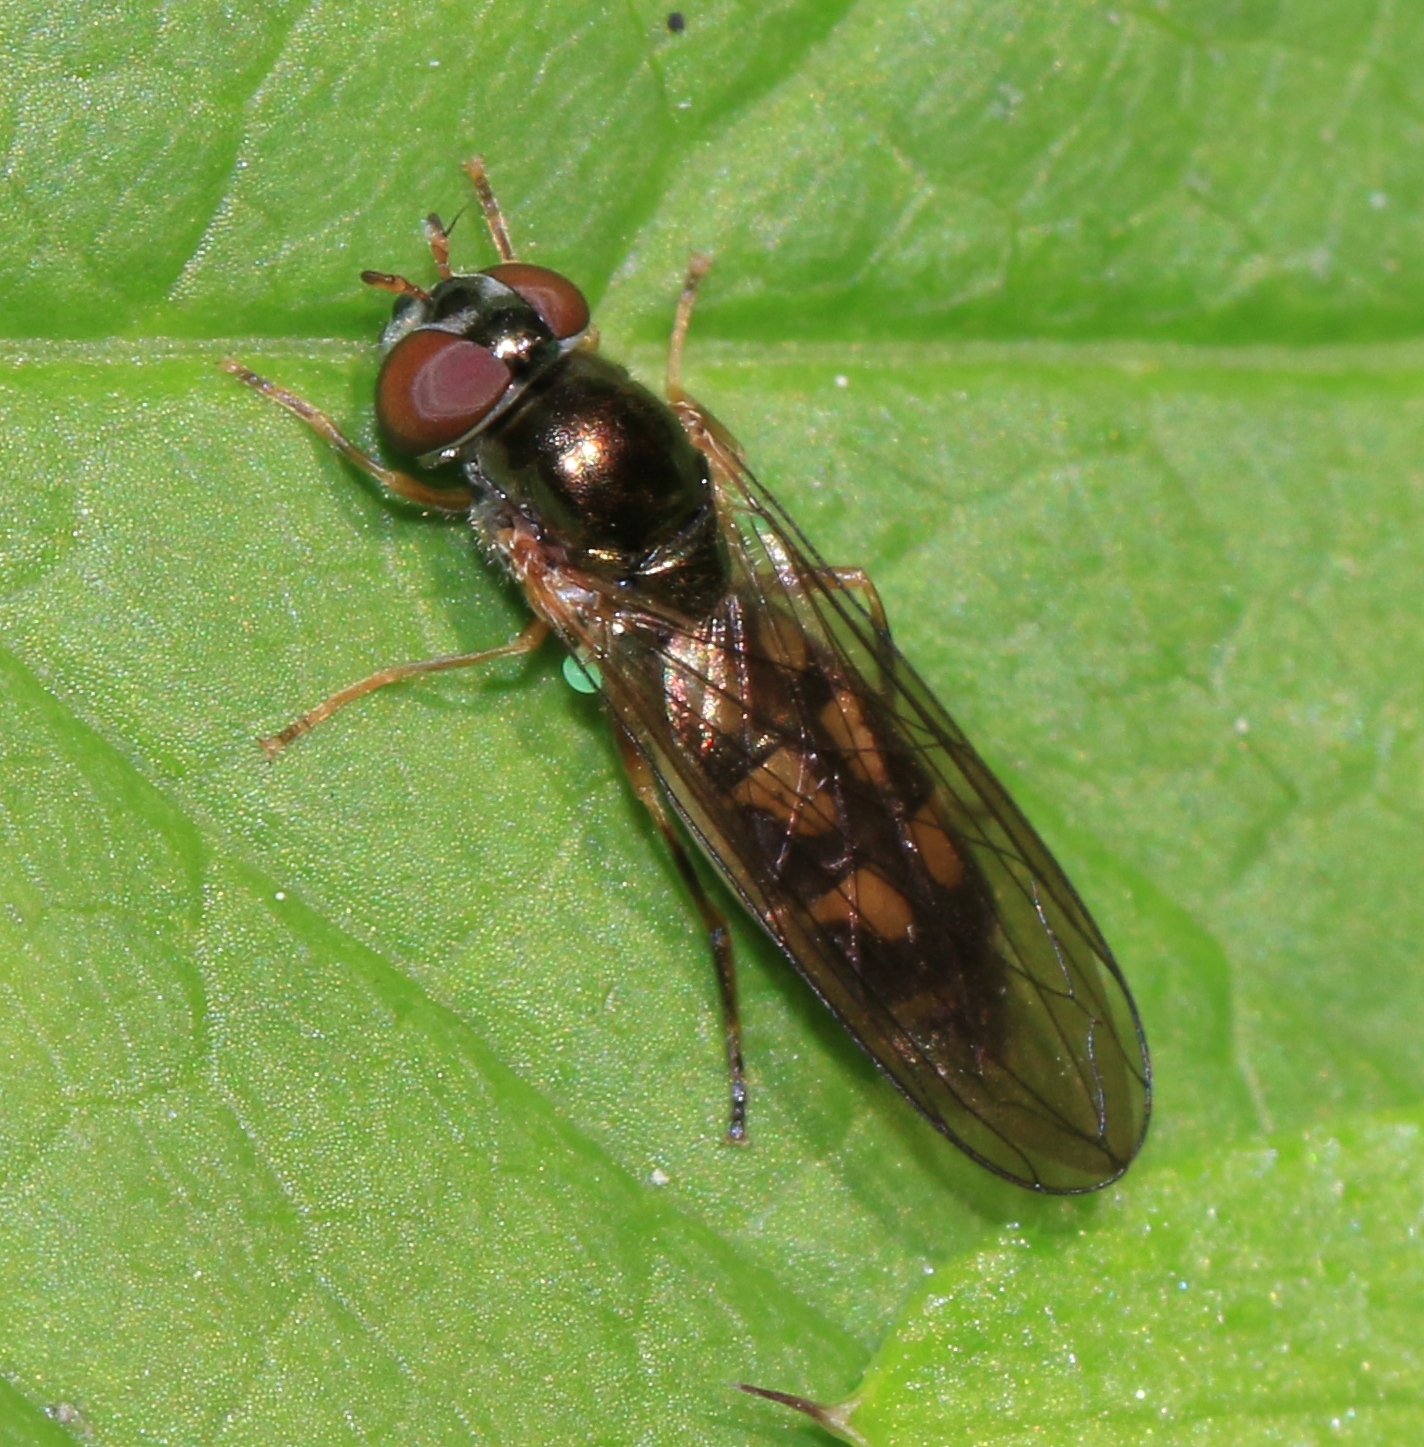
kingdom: Animalia
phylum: Arthropoda
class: Insecta
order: Diptera
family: Syrphidae
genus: Melanostoma
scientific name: Melanostoma scalare
